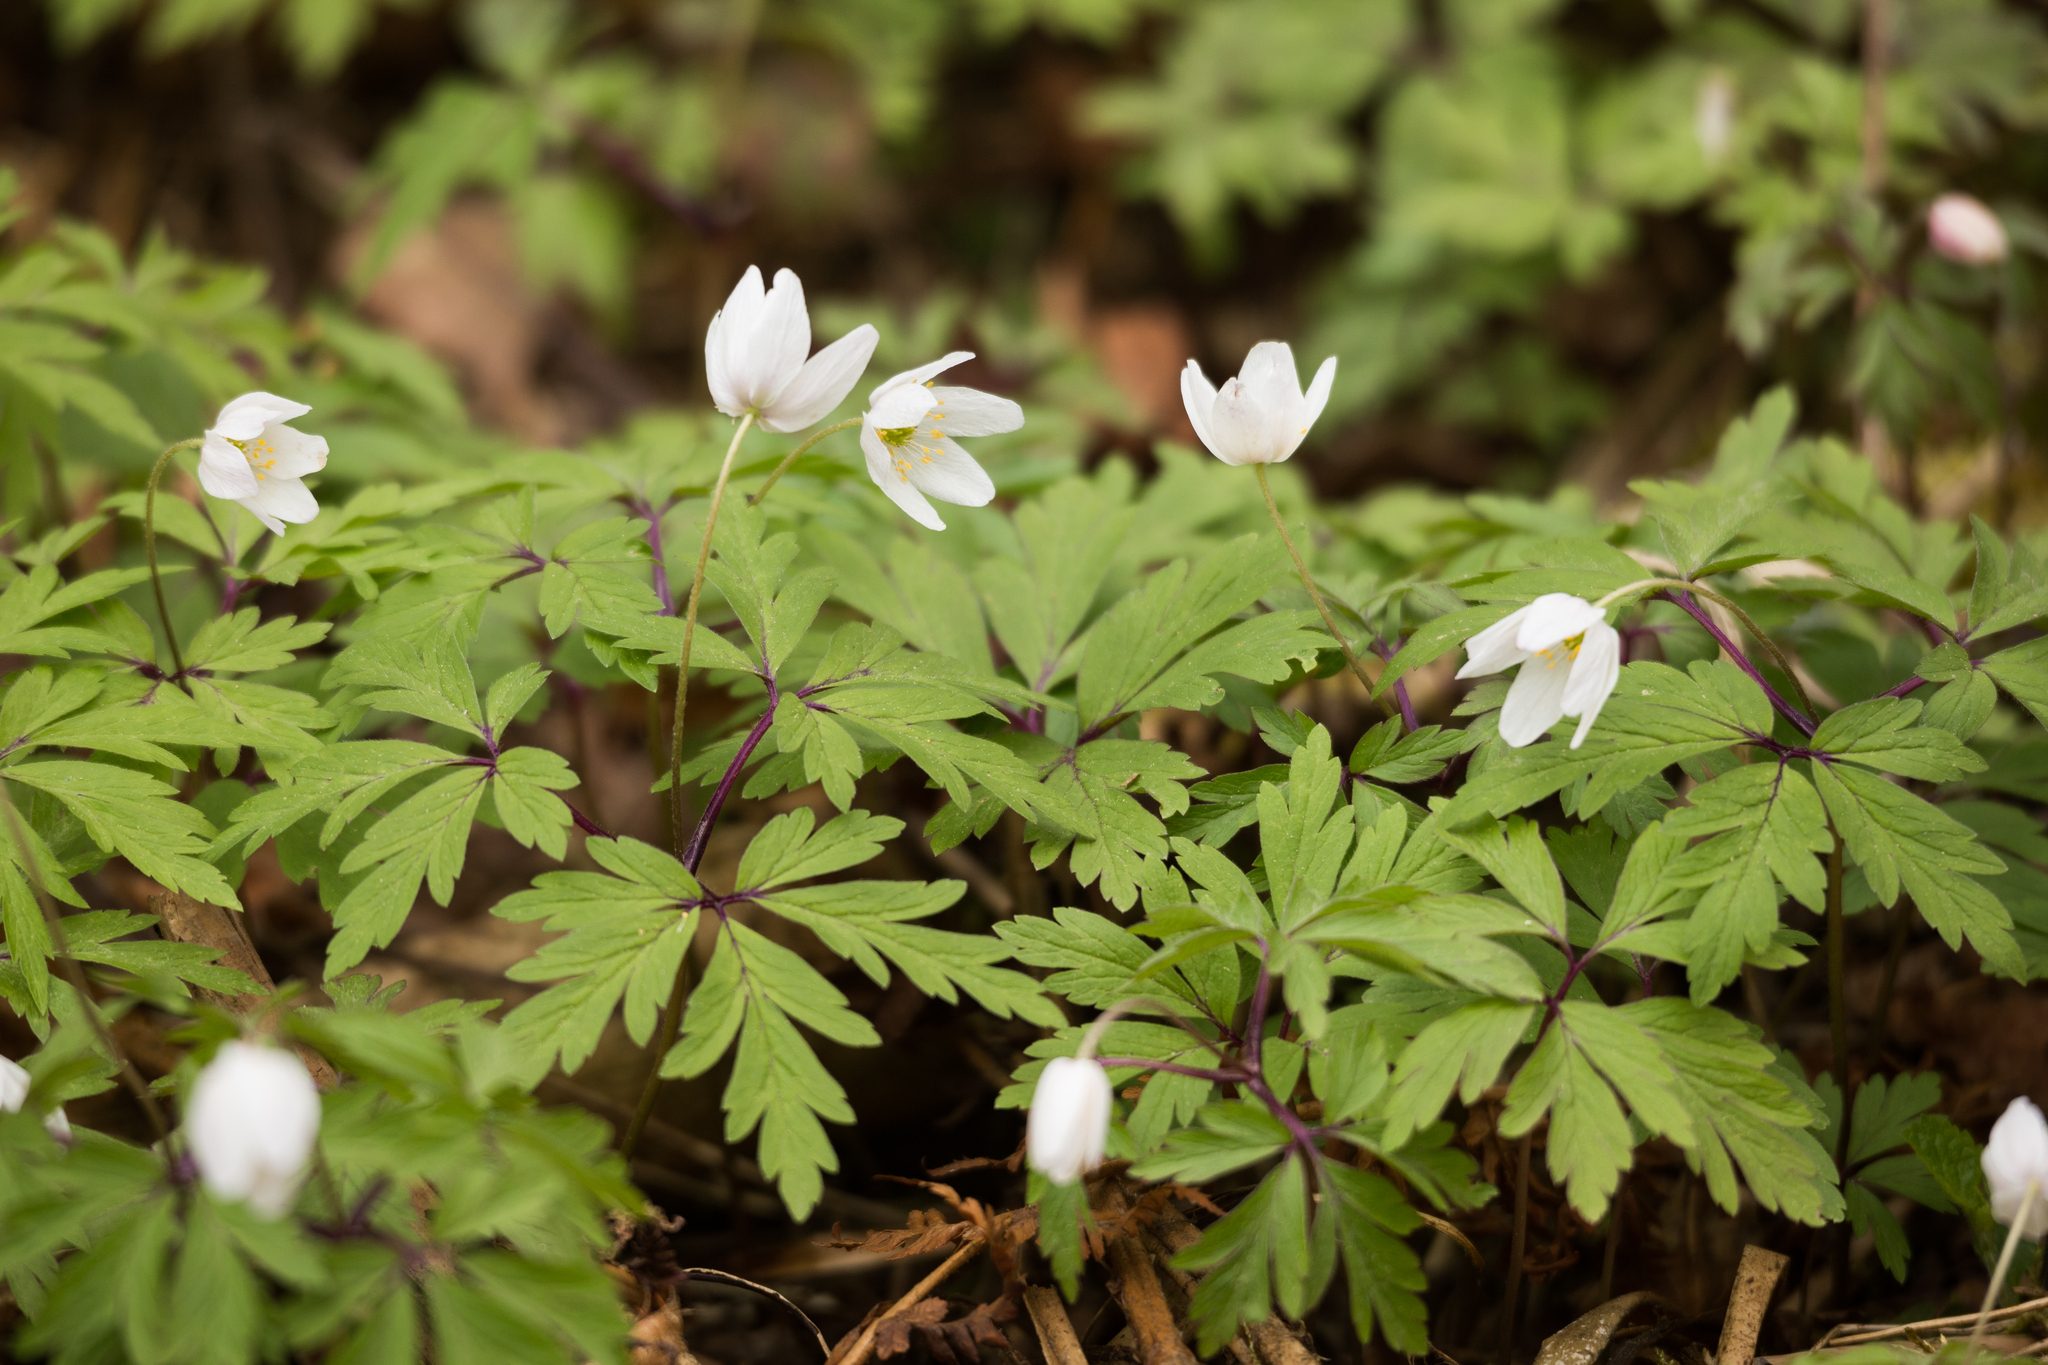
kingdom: Plantae
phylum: Tracheophyta
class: Magnoliopsida
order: Ranunculales
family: Ranunculaceae
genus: Anemone
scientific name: Anemone nemorosa
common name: Wood anemone
